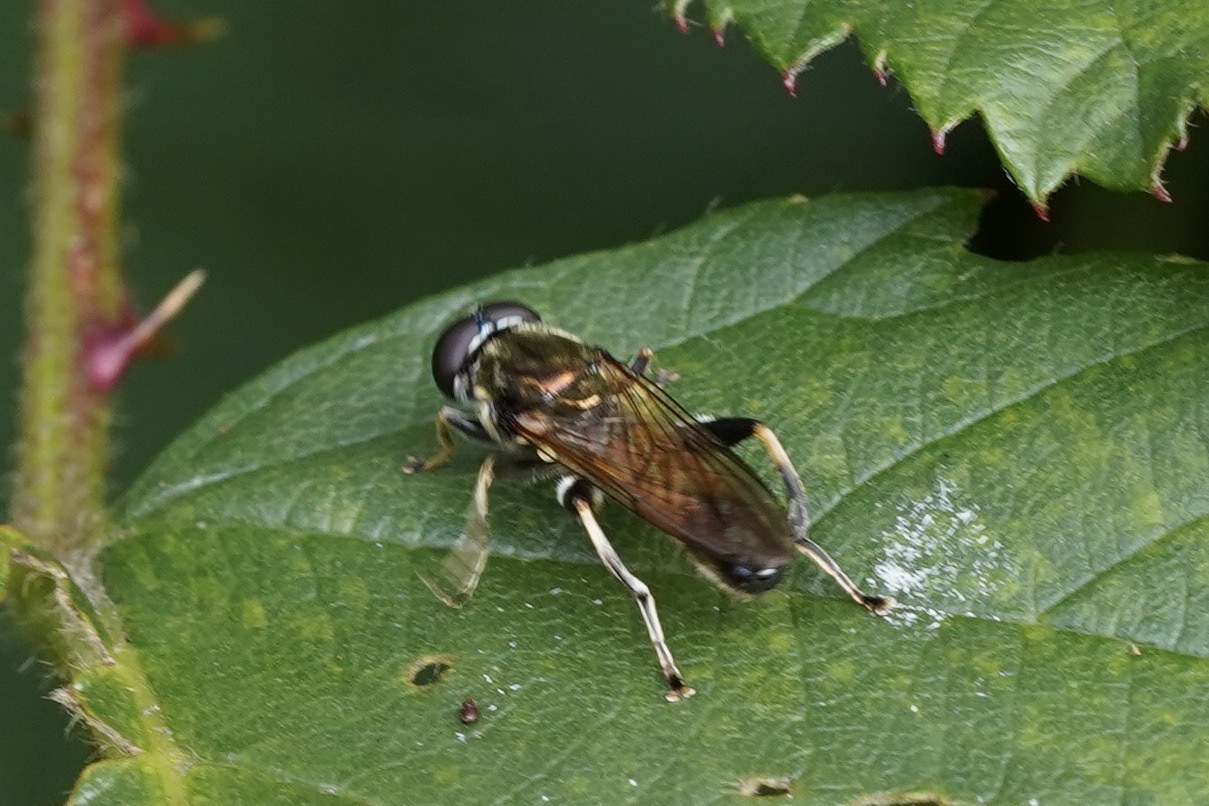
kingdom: Animalia
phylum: Arthropoda
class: Insecta
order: Diptera
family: Syrphidae
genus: Xylota
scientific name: Xylota segnis
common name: Brown-toed forest fly
